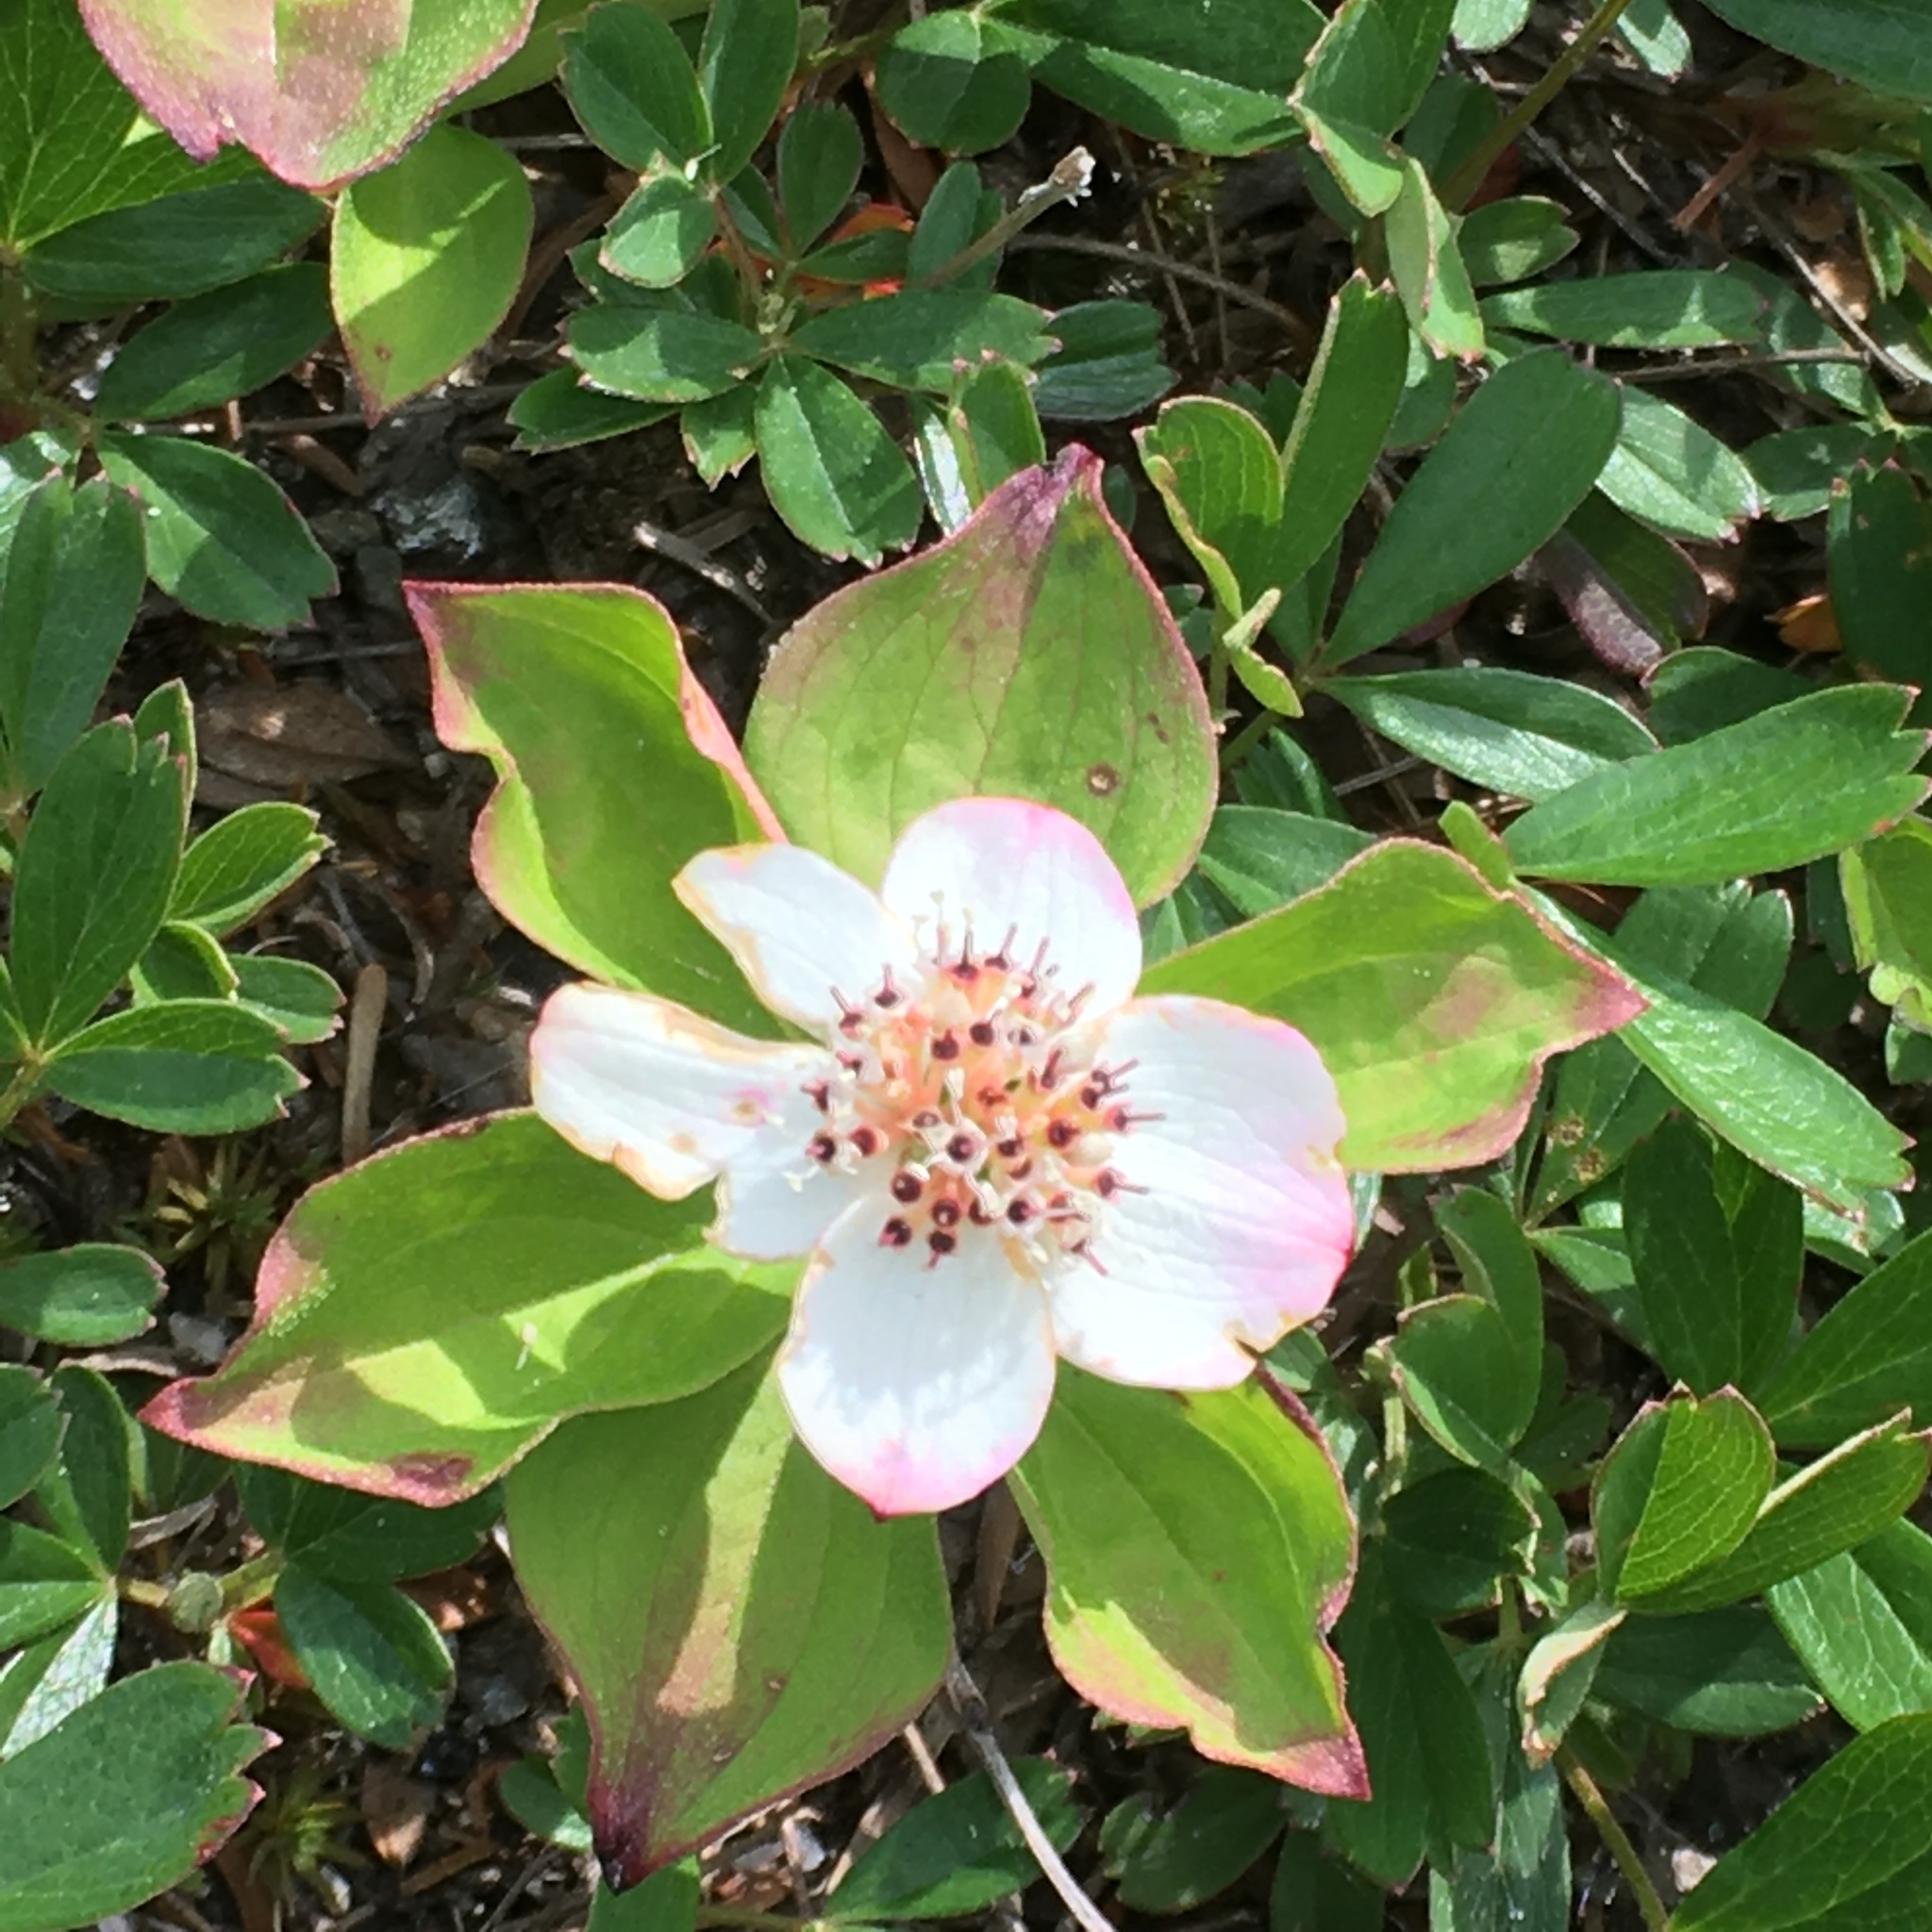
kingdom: Plantae
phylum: Tracheophyta
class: Magnoliopsida
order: Cornales
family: Cornaceae
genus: Cornus
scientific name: Cornus canadensis
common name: Creeping dogwood
